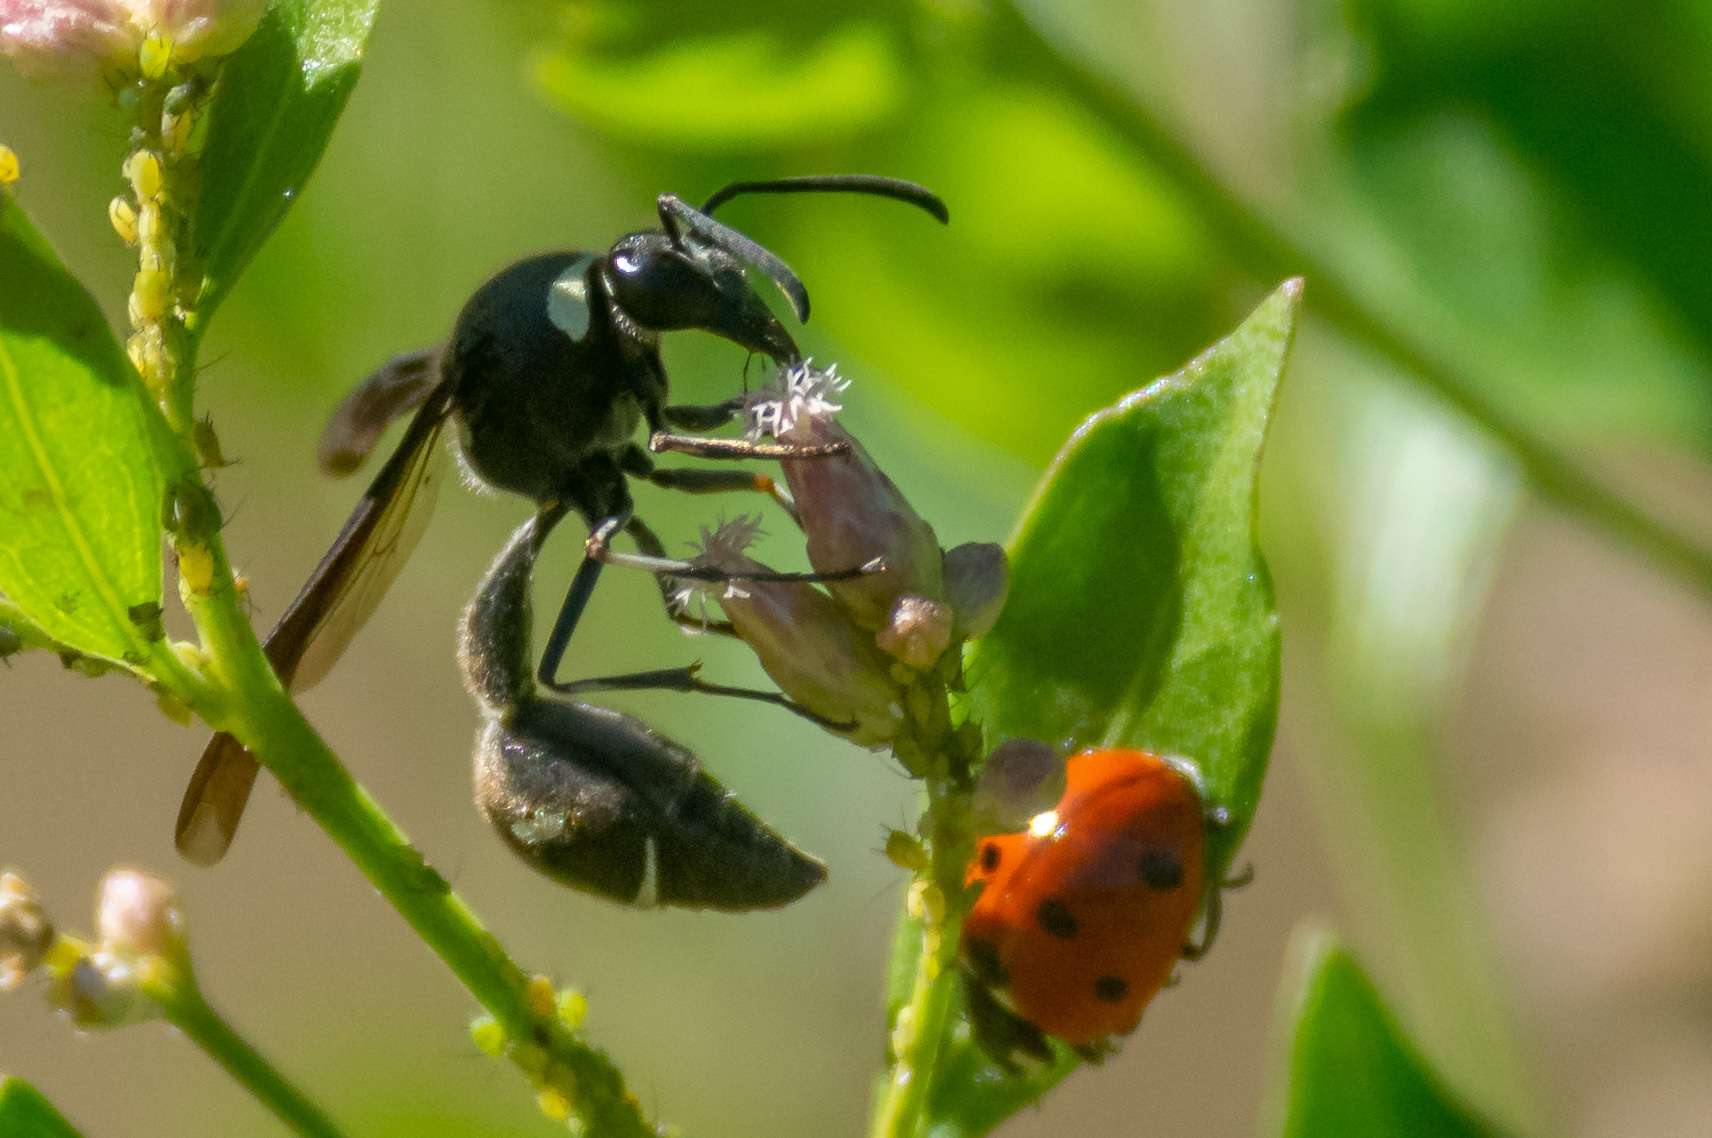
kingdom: Animalia
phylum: Arthropoda
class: Insecta
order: Hymenoptera
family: Vespidae
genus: Eumenes
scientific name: Eumenes fraternus
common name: Fraternal potter wasp
